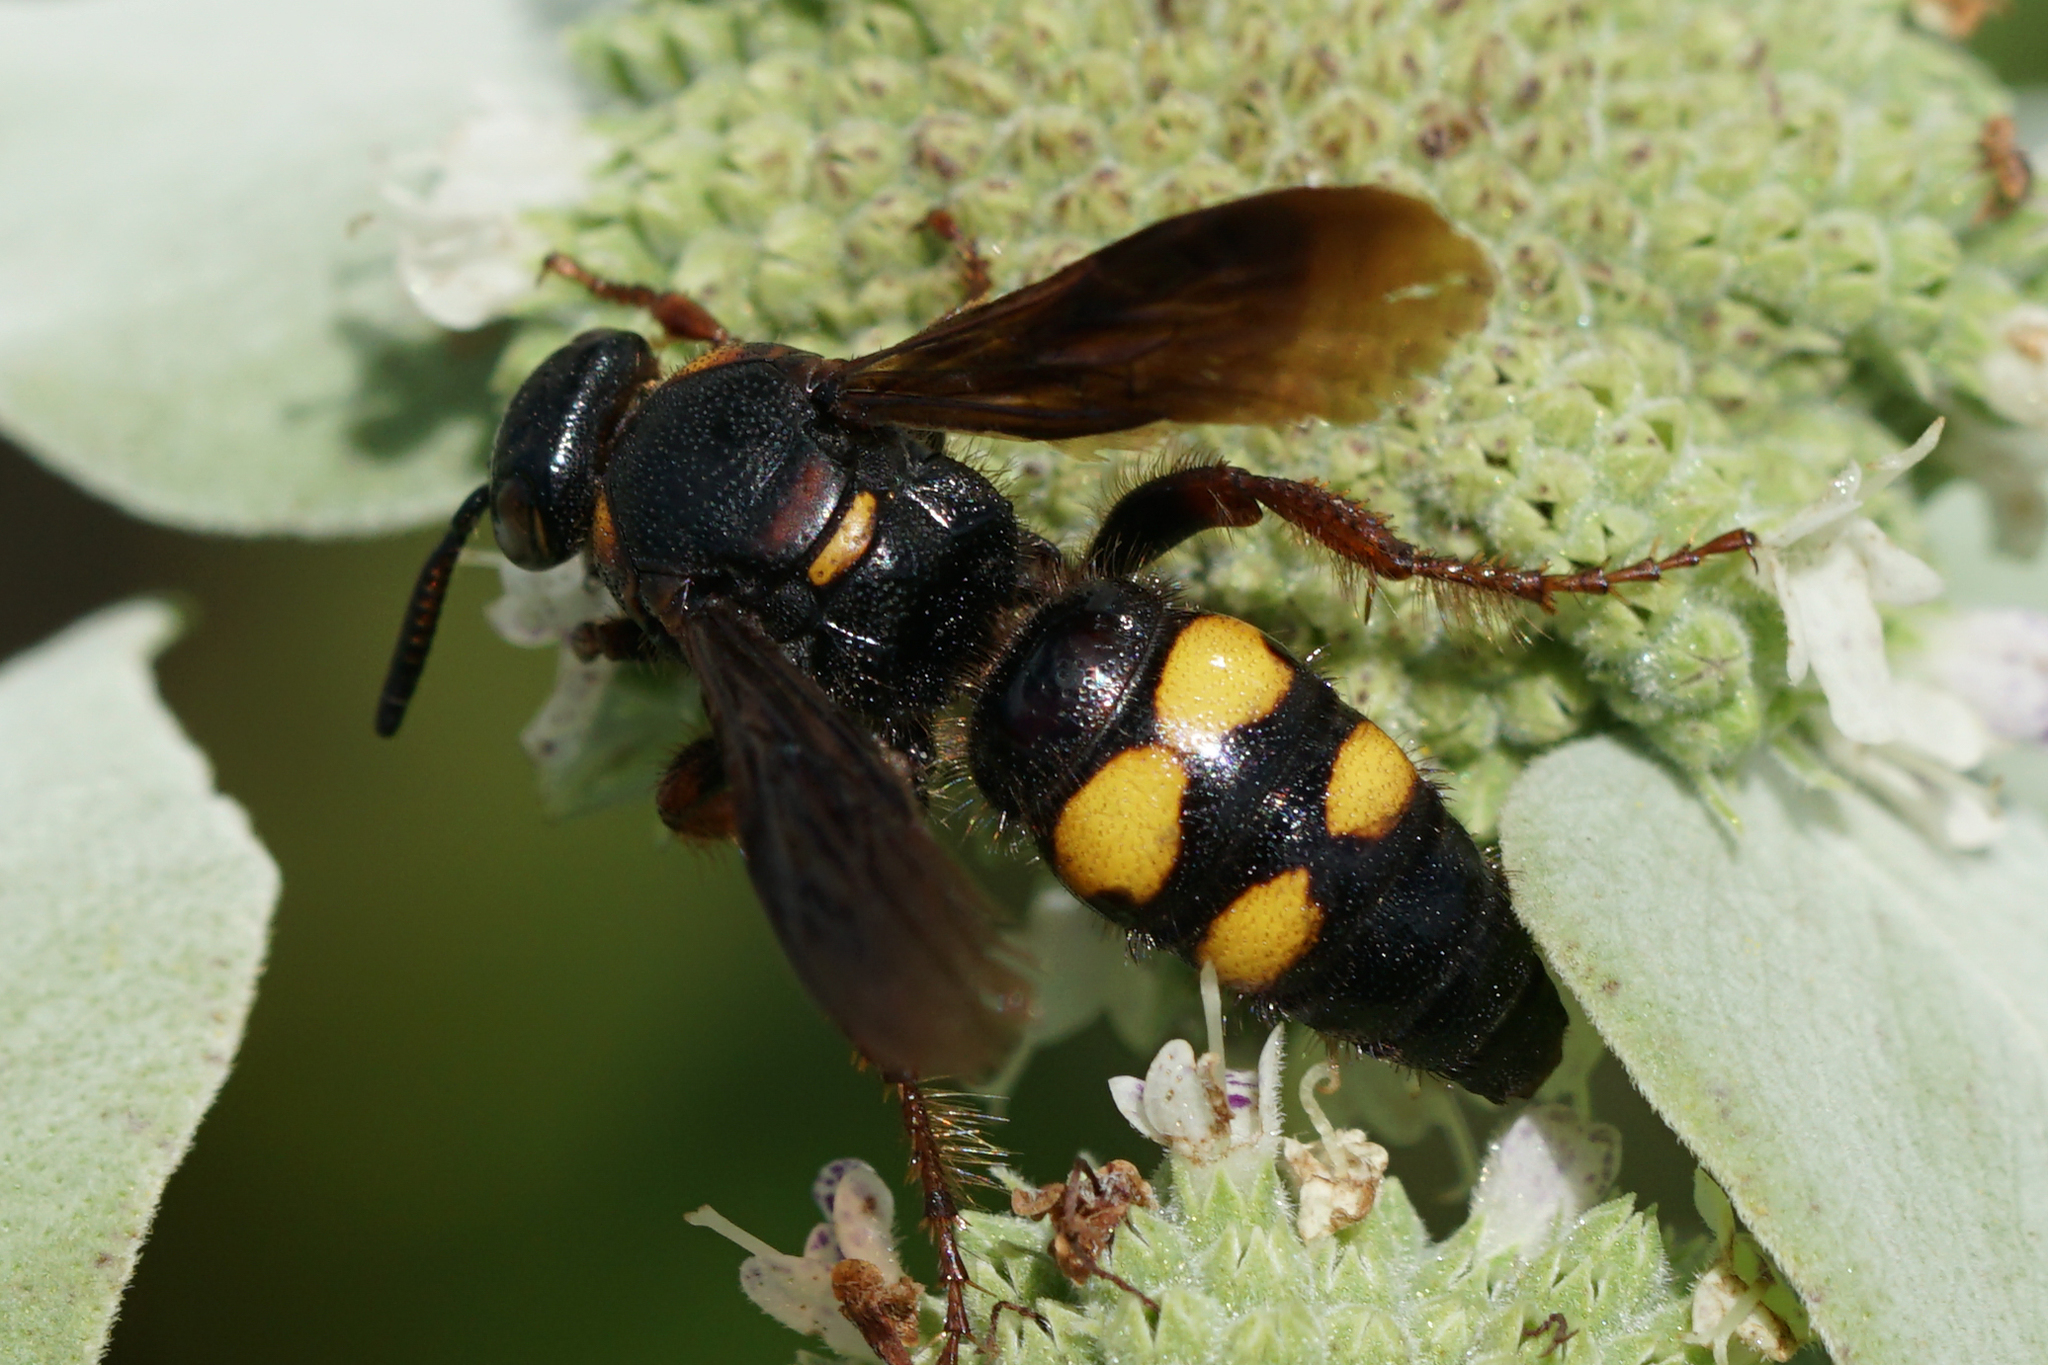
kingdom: Animalia
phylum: Arthropoda
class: Insecta
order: Hymenoptera
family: Scoliidae
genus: Scolia
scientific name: Scolia nobilitata
